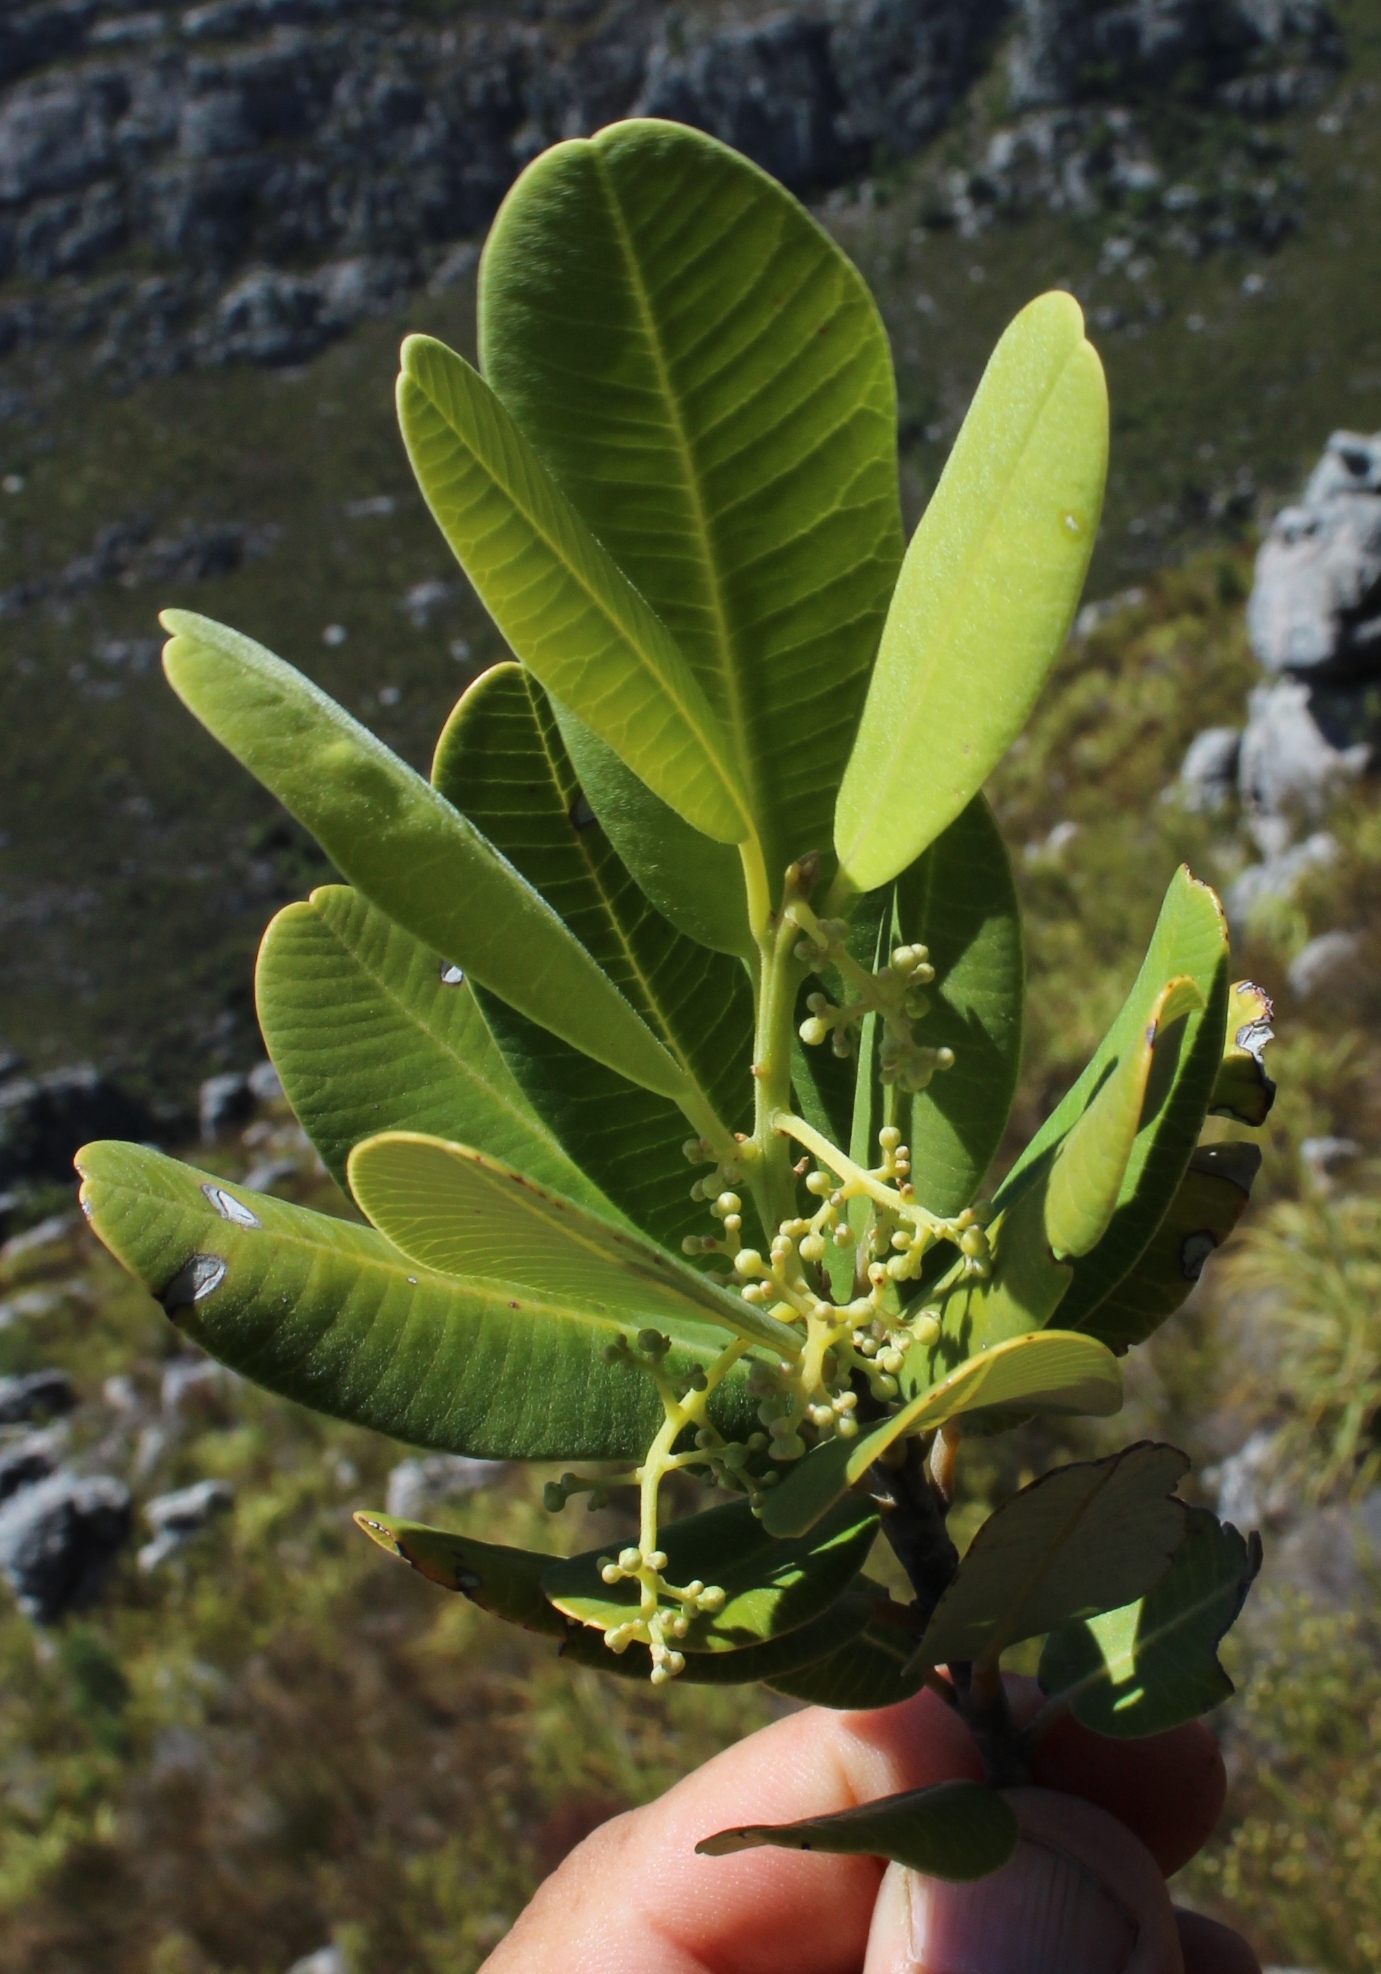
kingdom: Plantae
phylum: Tracheophyta
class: Magnoliopsida
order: Sapindales
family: Anacardiaceae
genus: Heeria
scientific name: Heeria argentea
